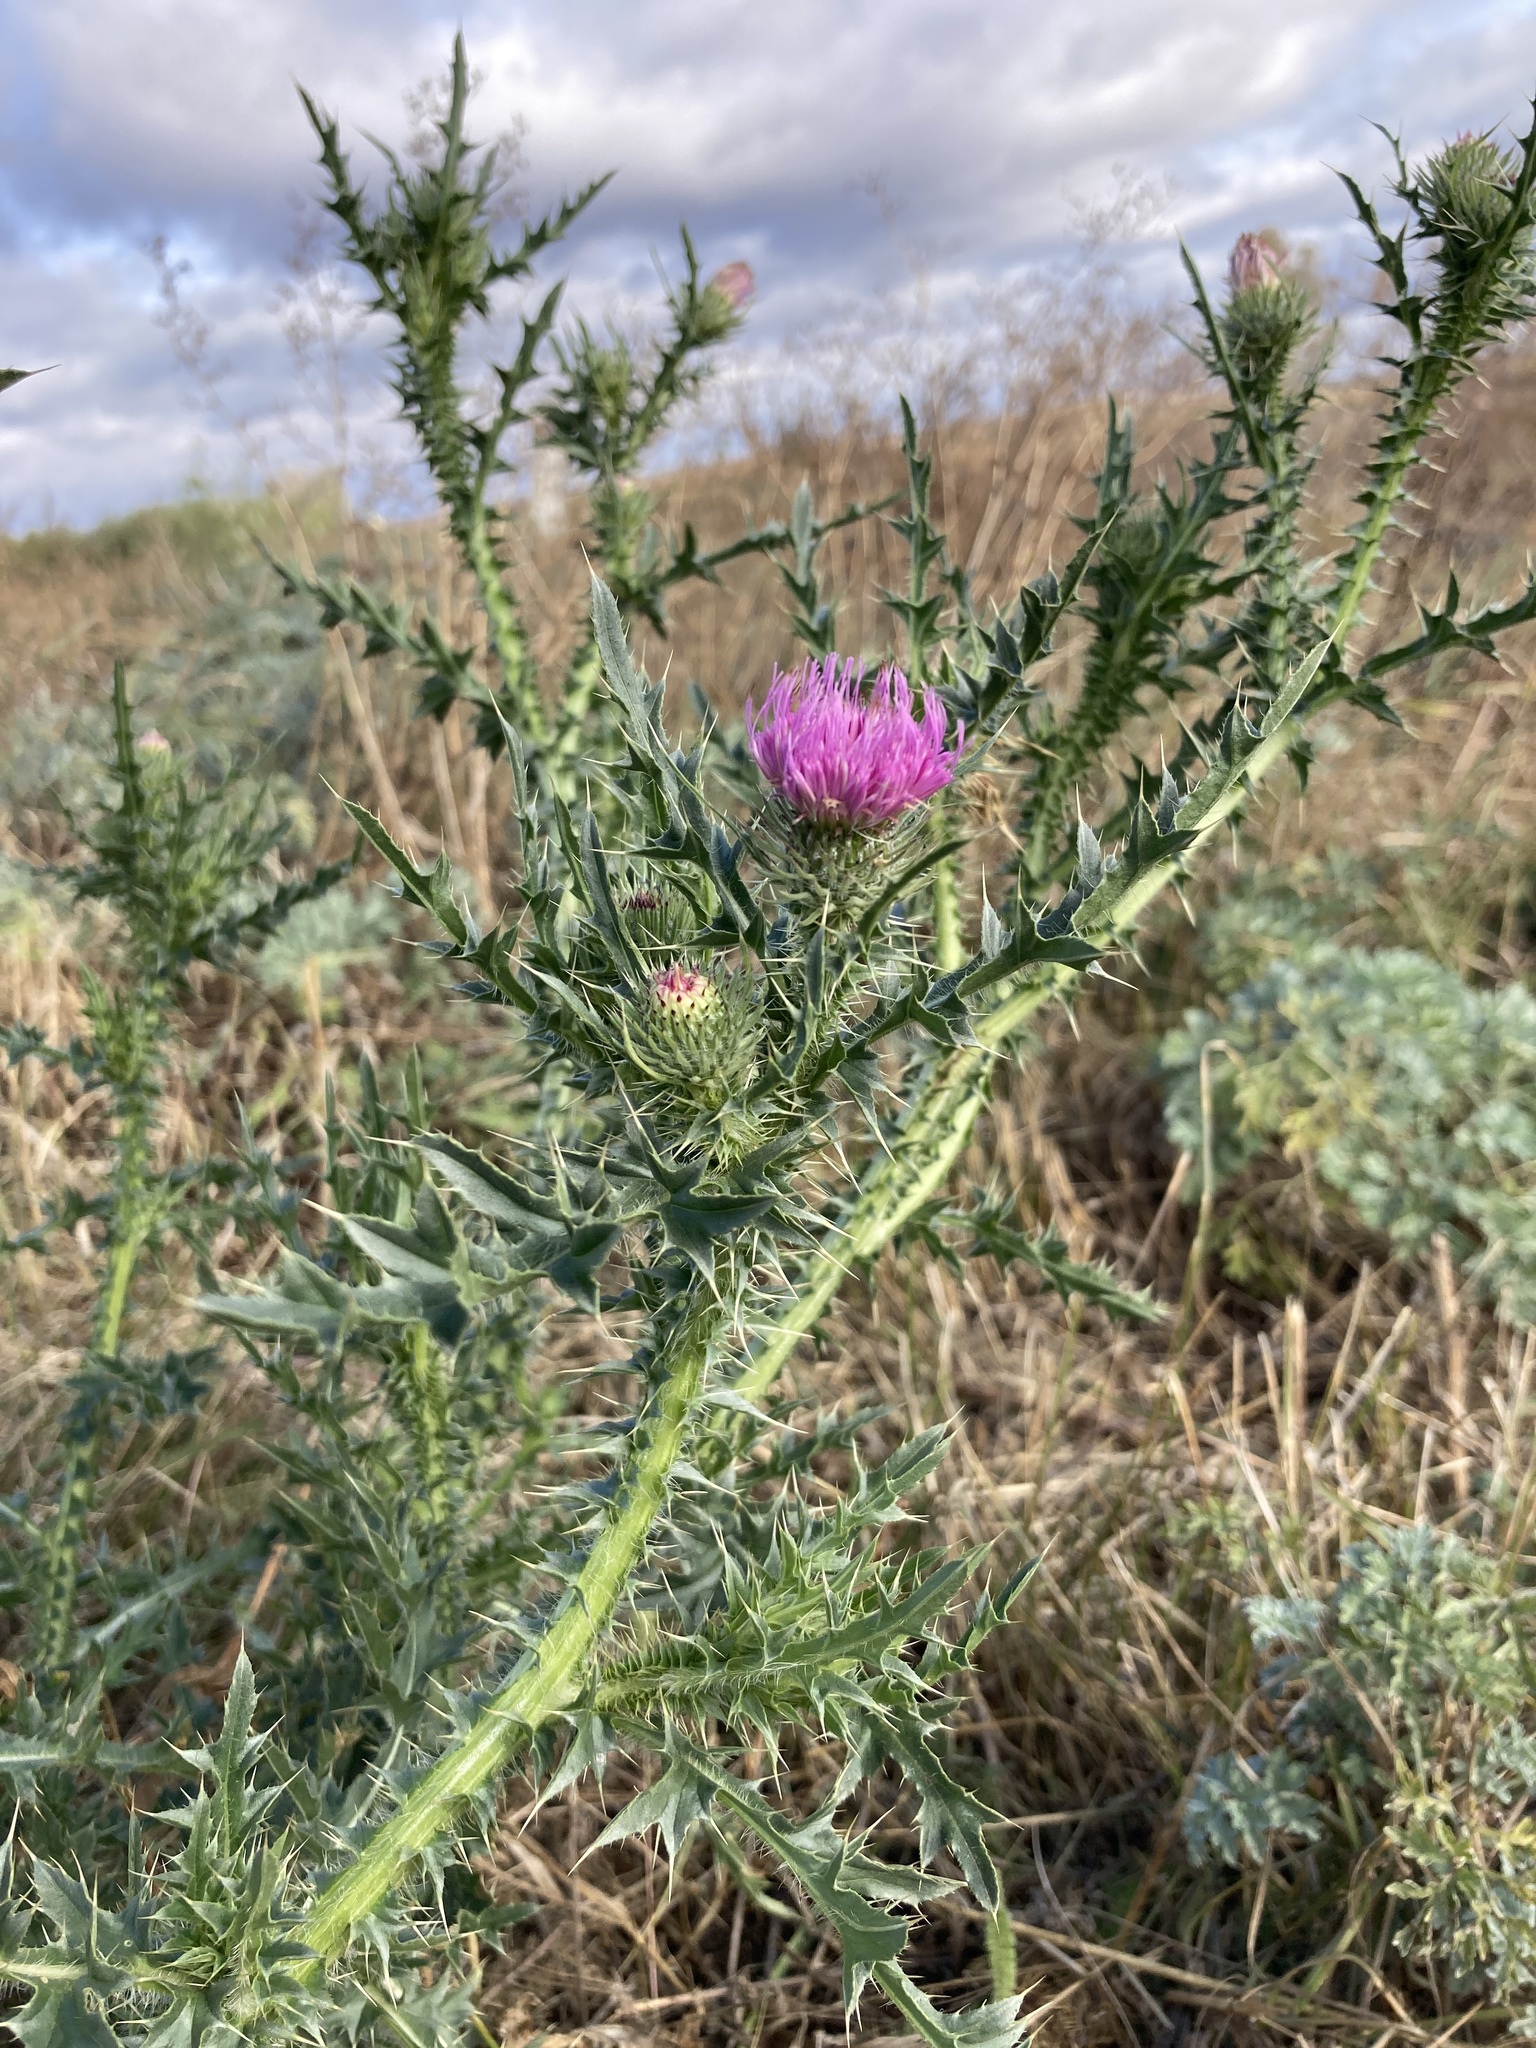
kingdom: Plantae
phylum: Tracheophyta
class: Magnoliopsida
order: Asterales
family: Asteraceae
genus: Carduus
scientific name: Carduus acanthoides
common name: Plumeless thistle
